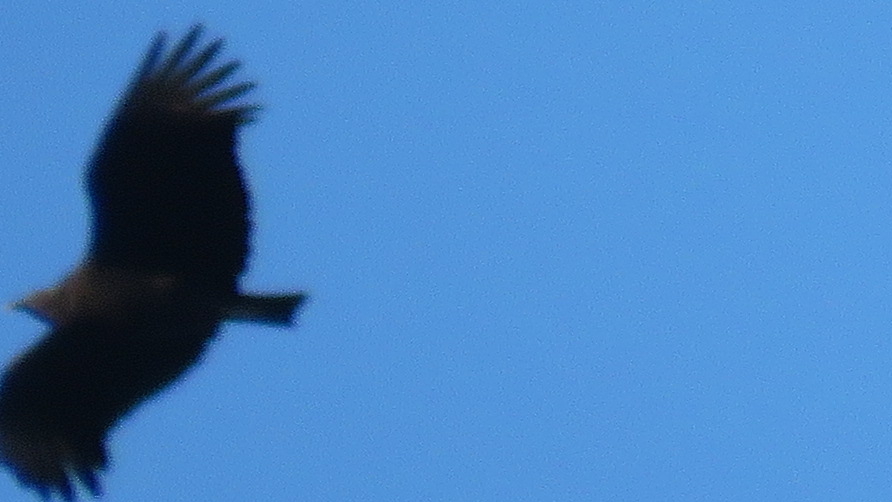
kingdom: Animalia
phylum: Chordata
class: Aves
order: Accipitriformes
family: Cathartidae
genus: Coragyps
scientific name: Coragyps atratus
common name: Black vulture
